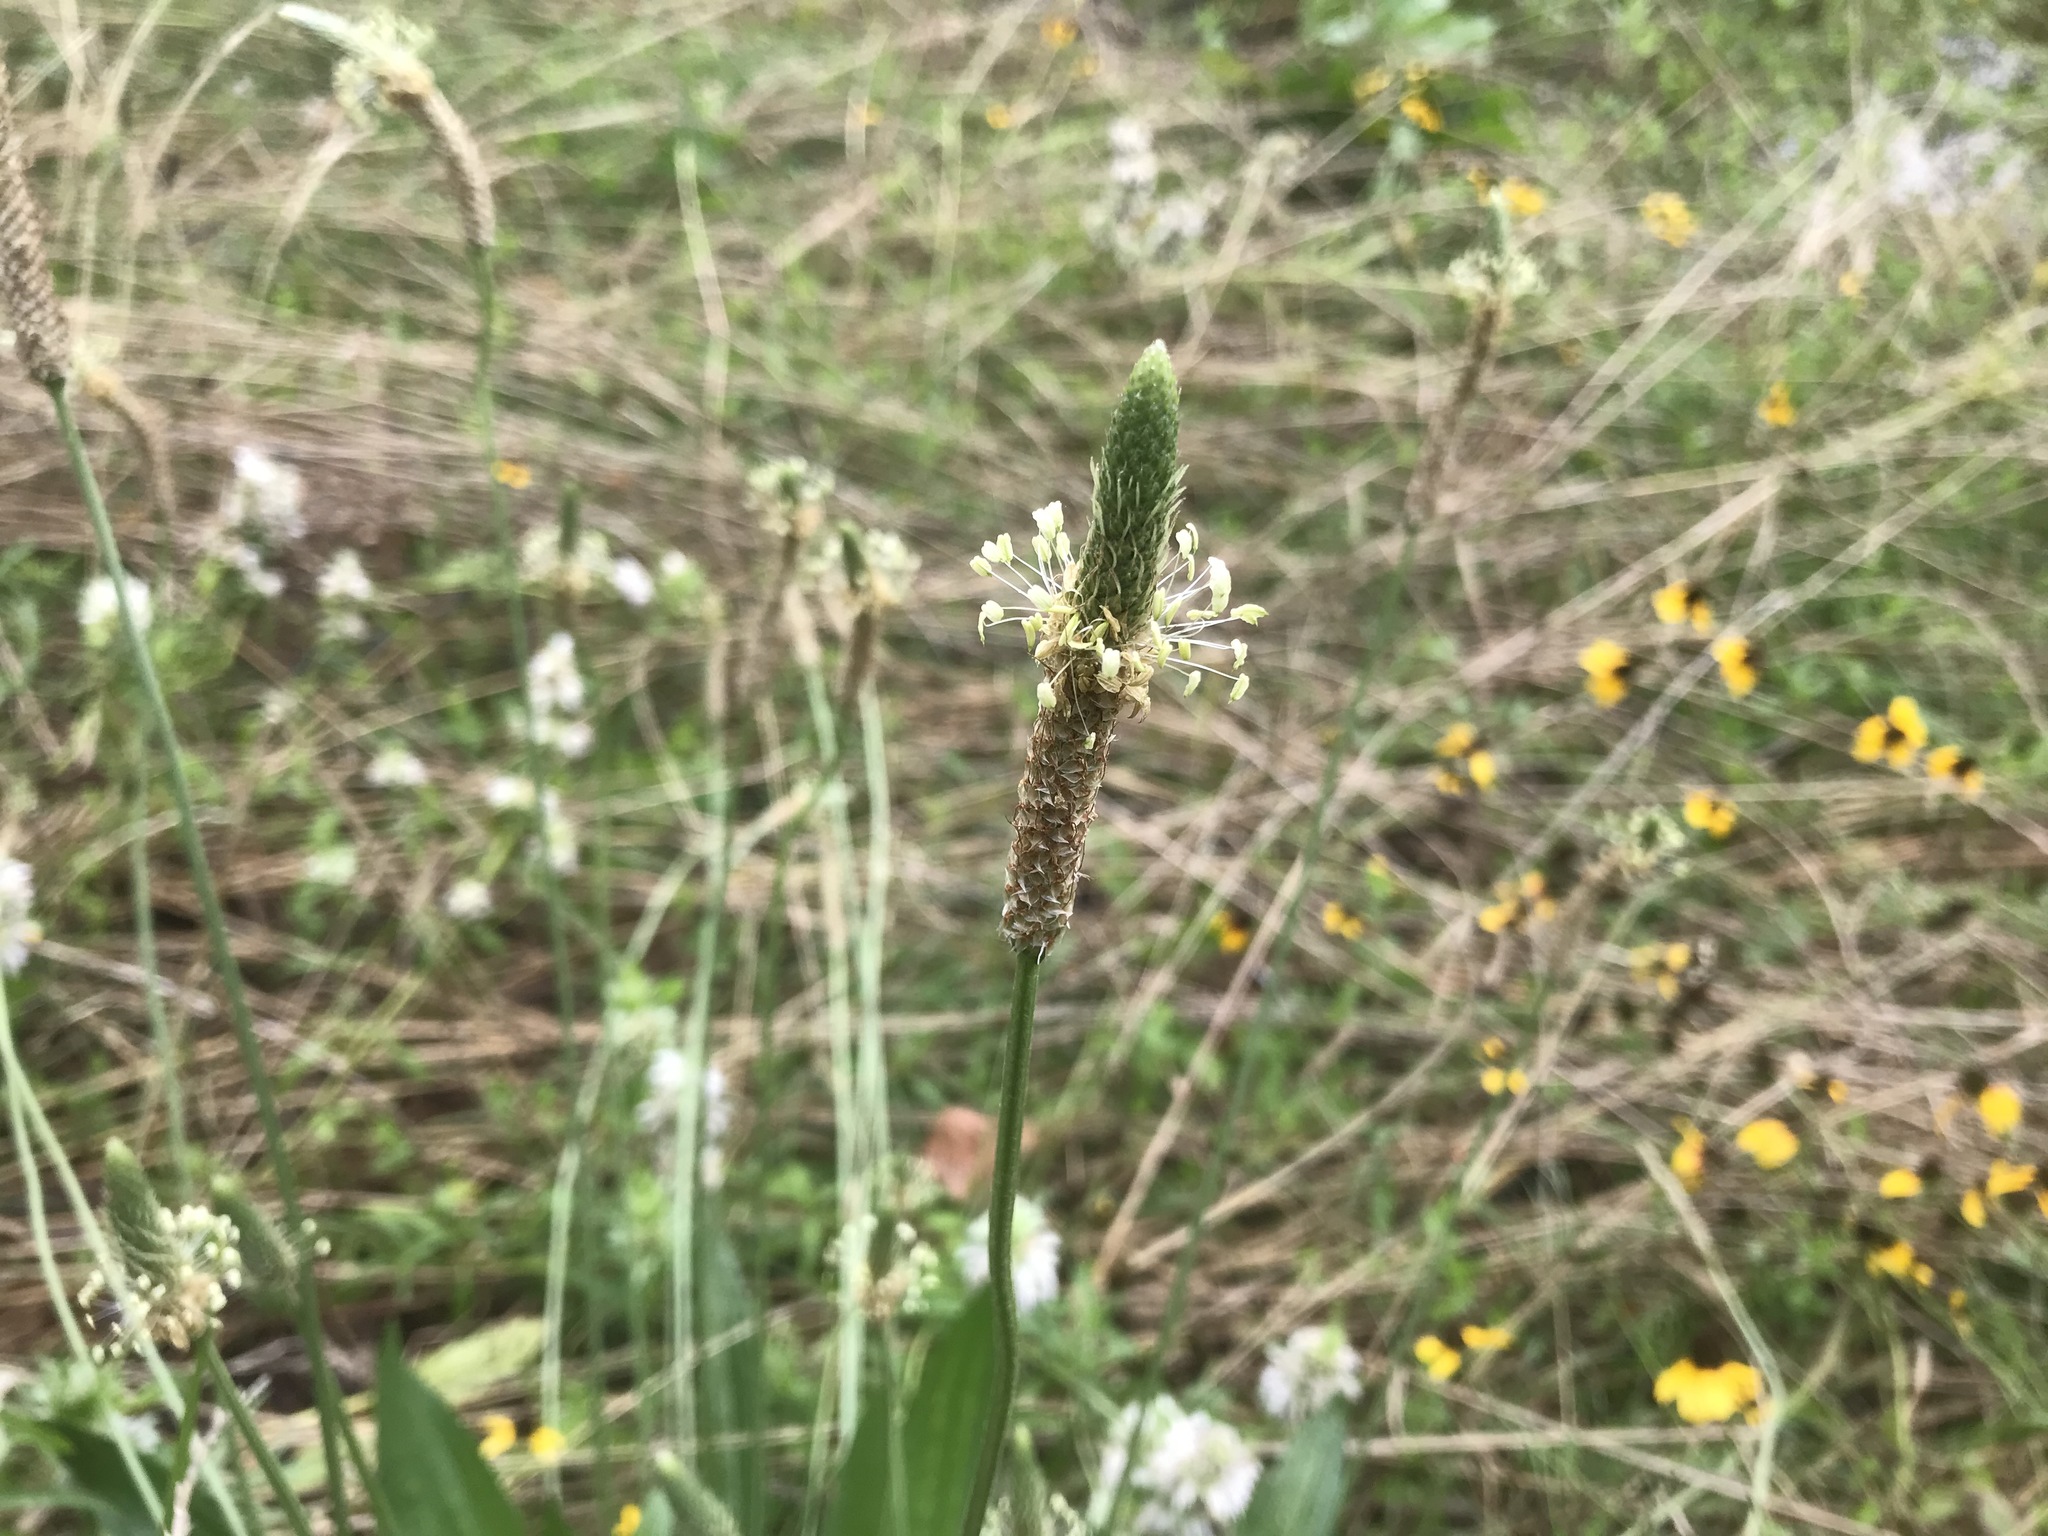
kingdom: Plantae
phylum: Tracheophyta
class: Magnoliopsida
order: Lamiales
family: Plantaginaceae
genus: Plantago
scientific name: Plantago lanceolata
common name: Ribwort plantain
